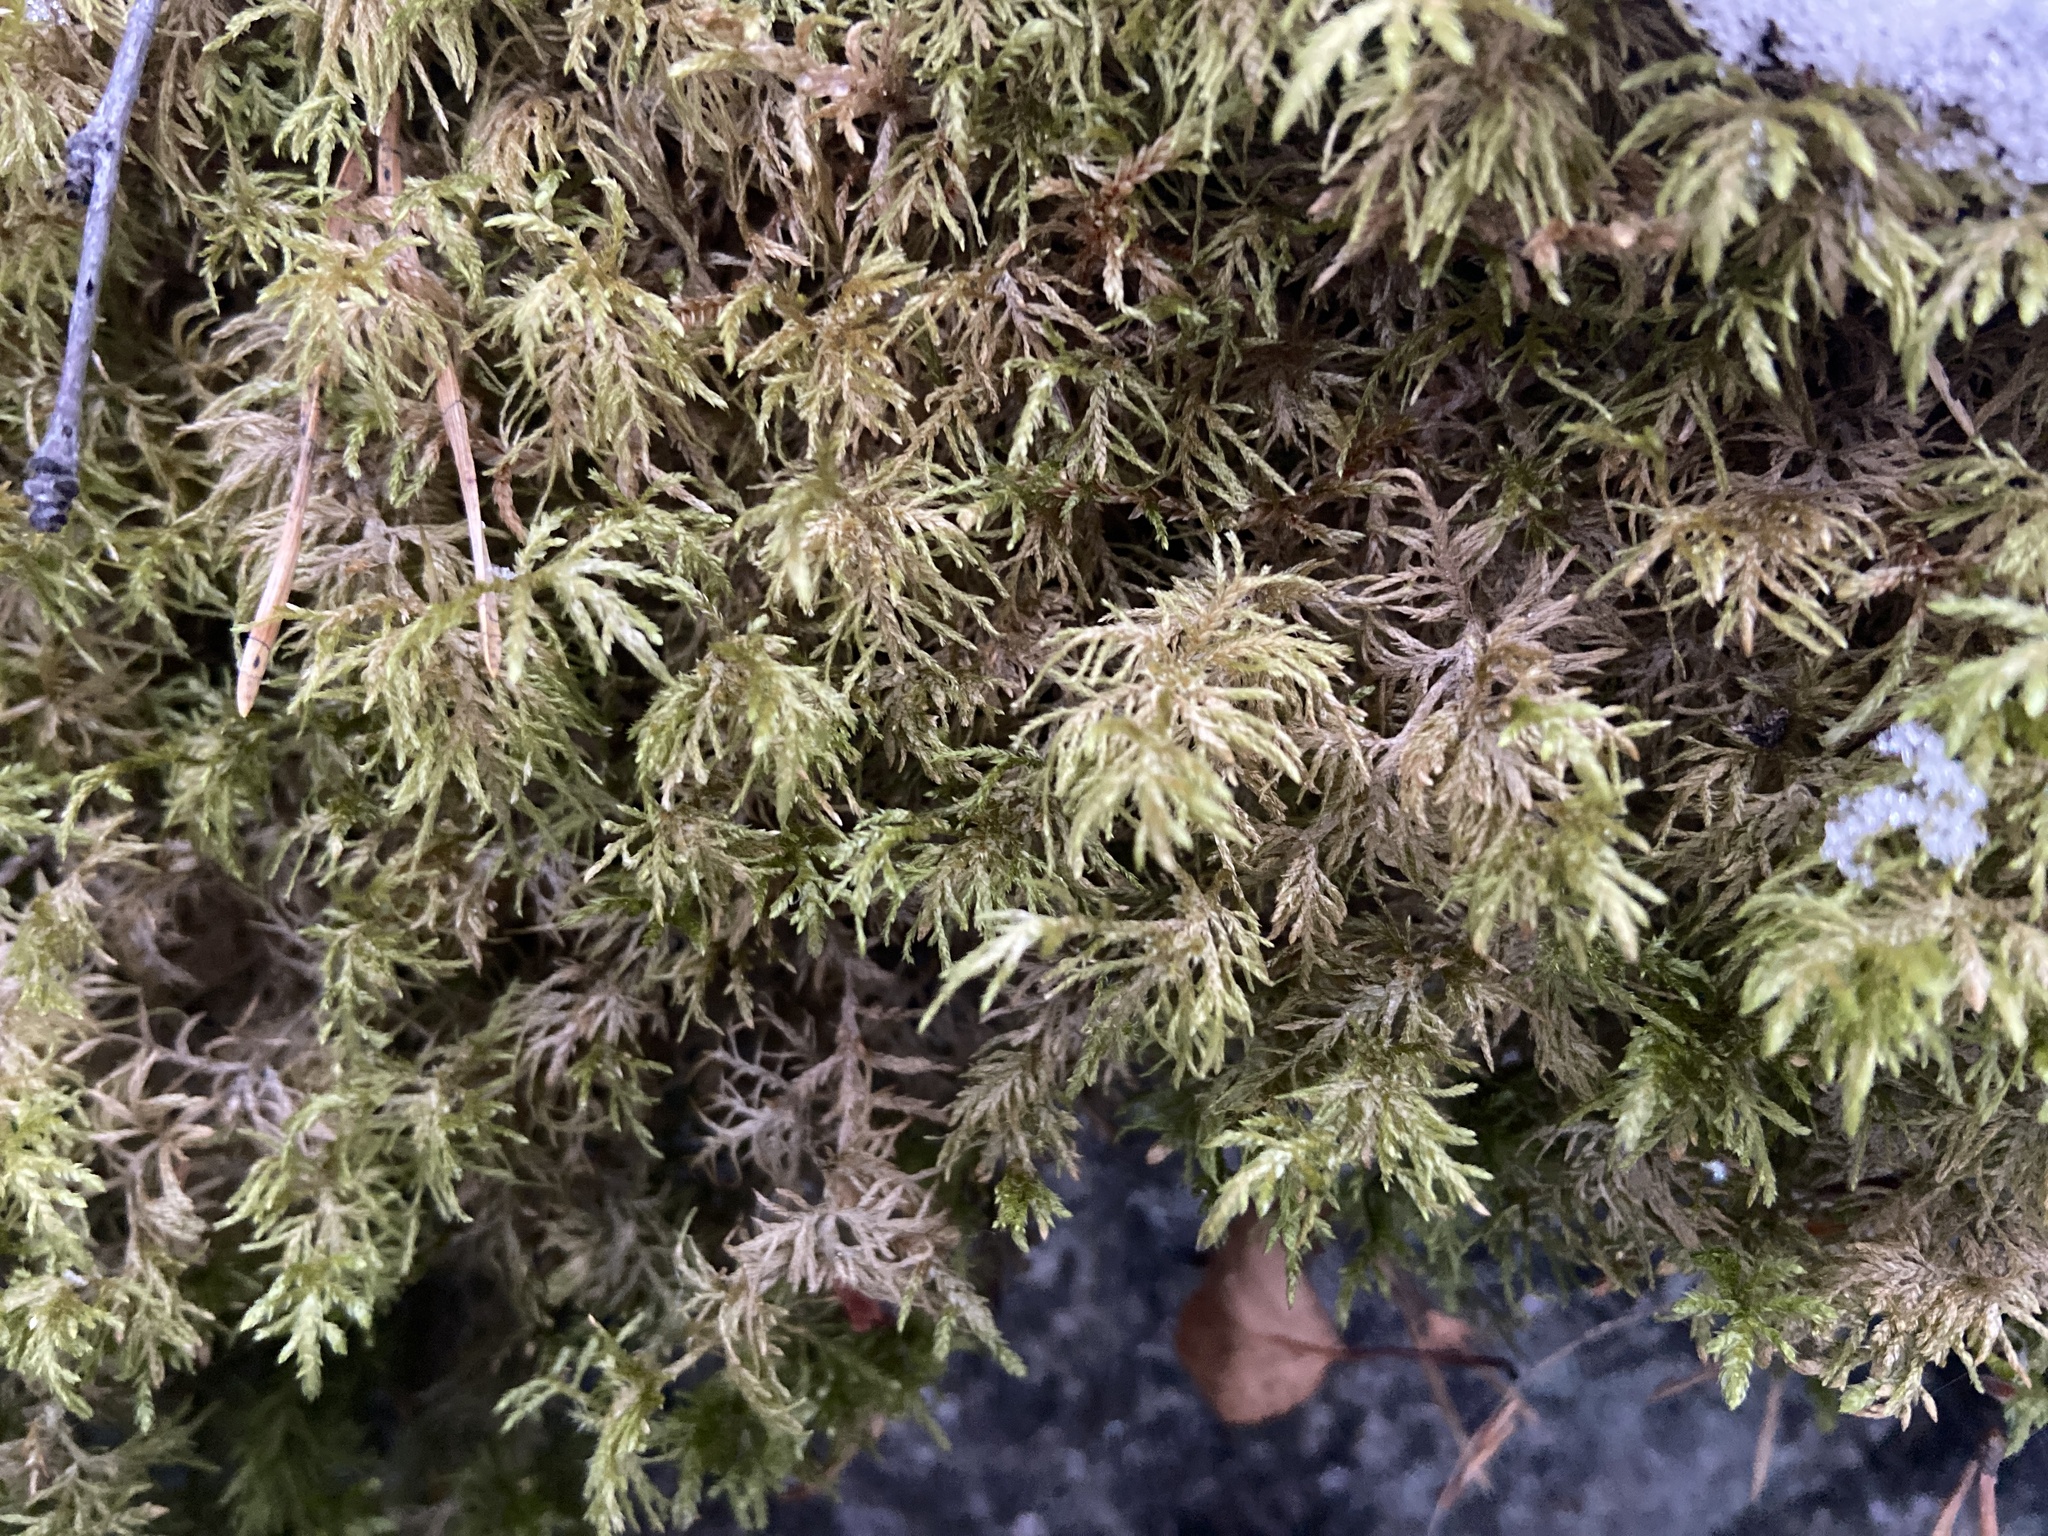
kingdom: Plantae
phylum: Bryophyta
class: Bryopsida
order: Hypnales
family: Hylocomiaceae
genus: Hylocomium
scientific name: Hylocomium splendens
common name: Stairstep moss
